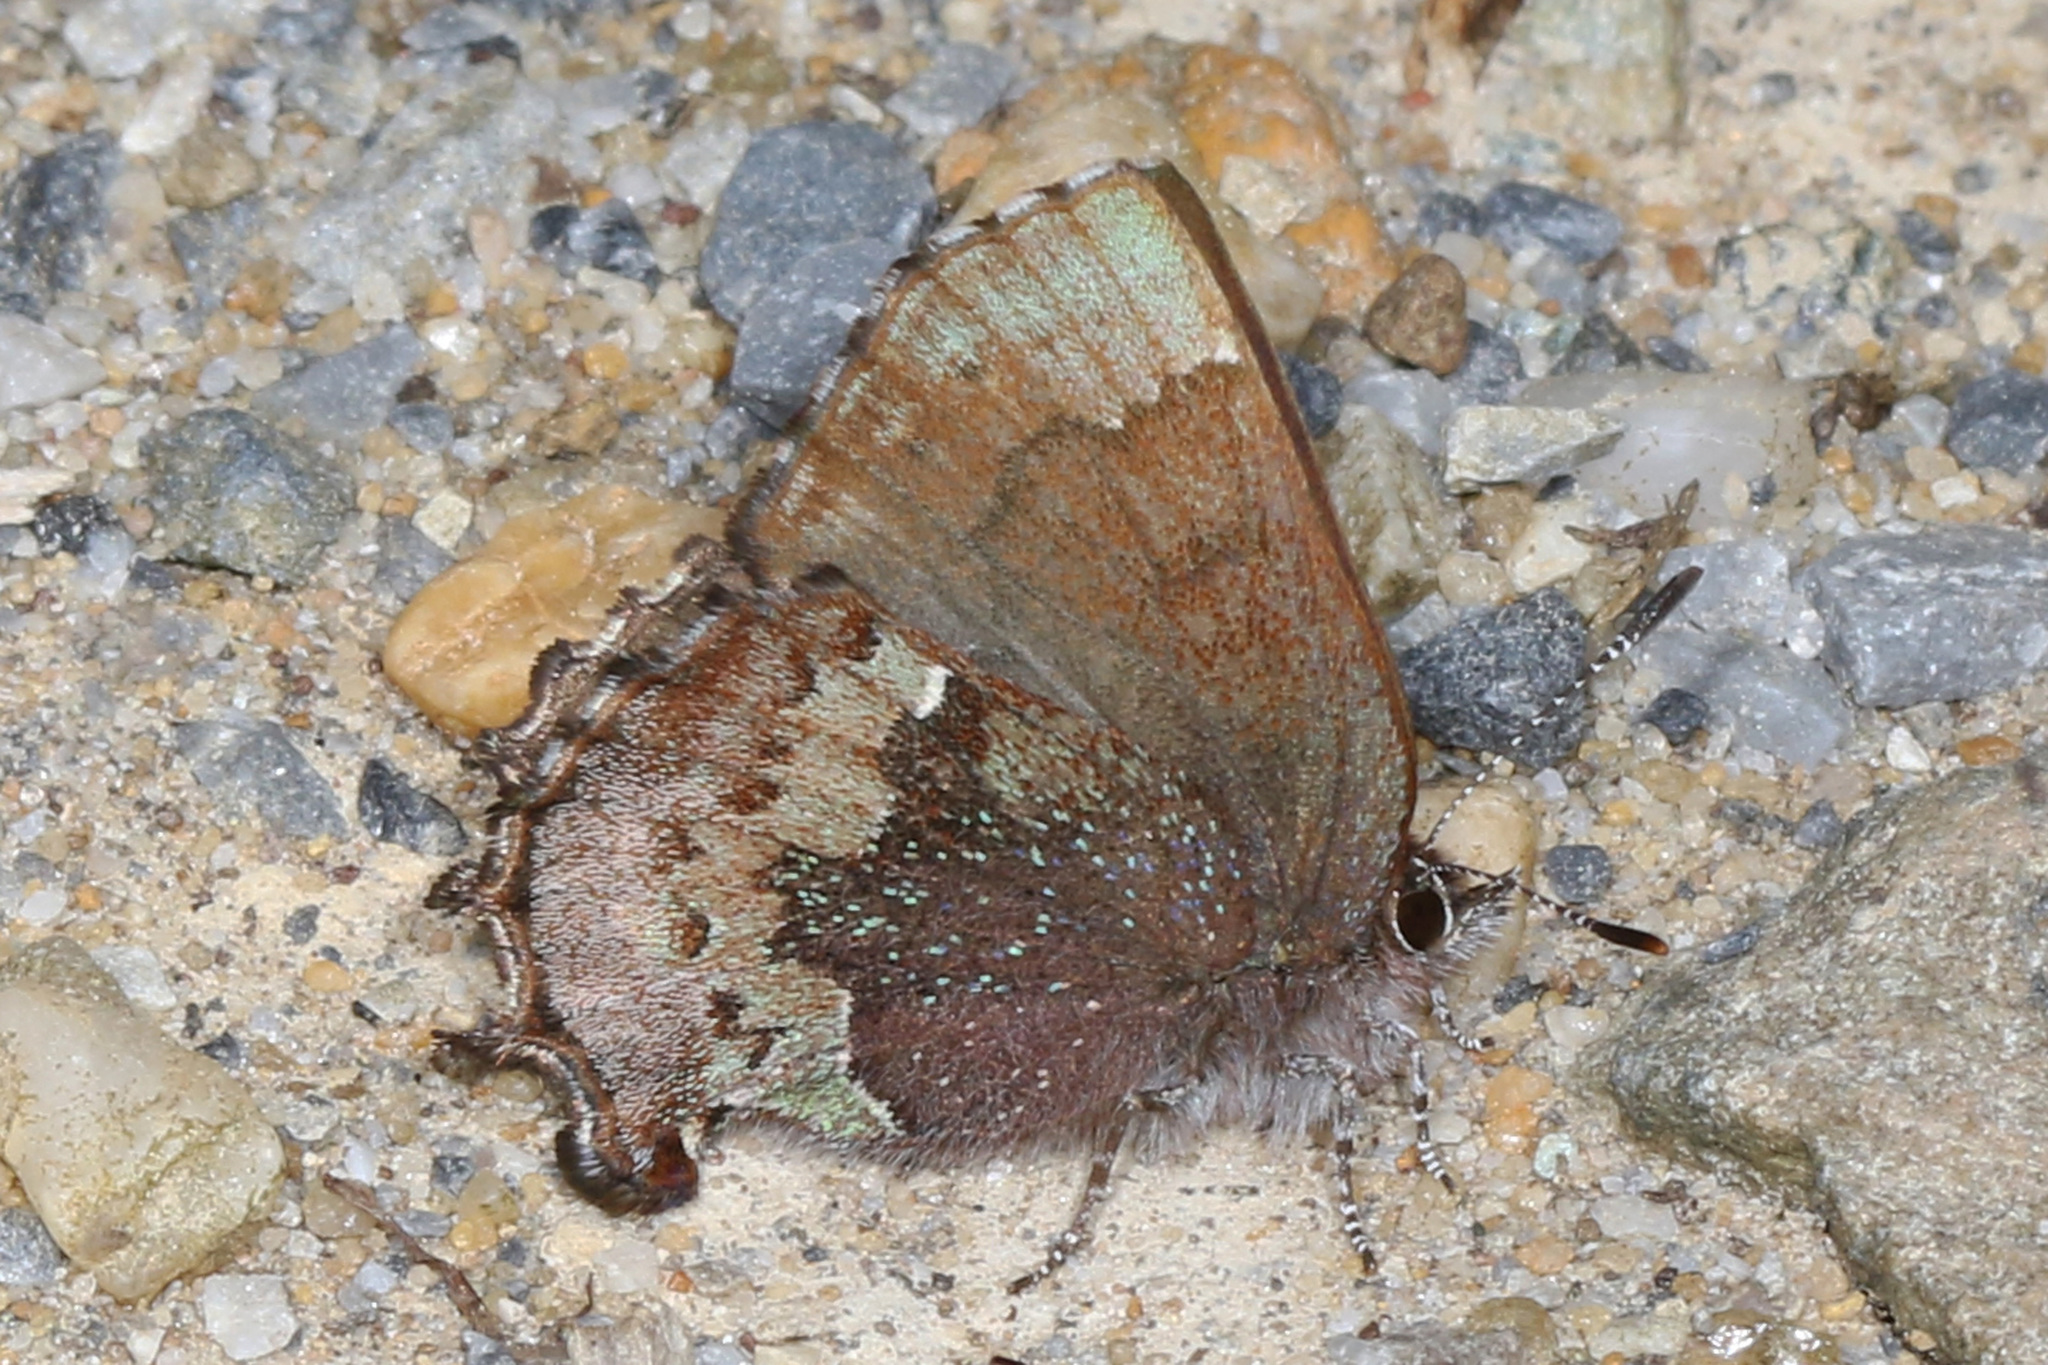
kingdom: Animalia
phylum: Arthropoda
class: Insecta
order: Lepidoptera
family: Lycaenidae
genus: Incisalia
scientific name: Incisalia henrici
